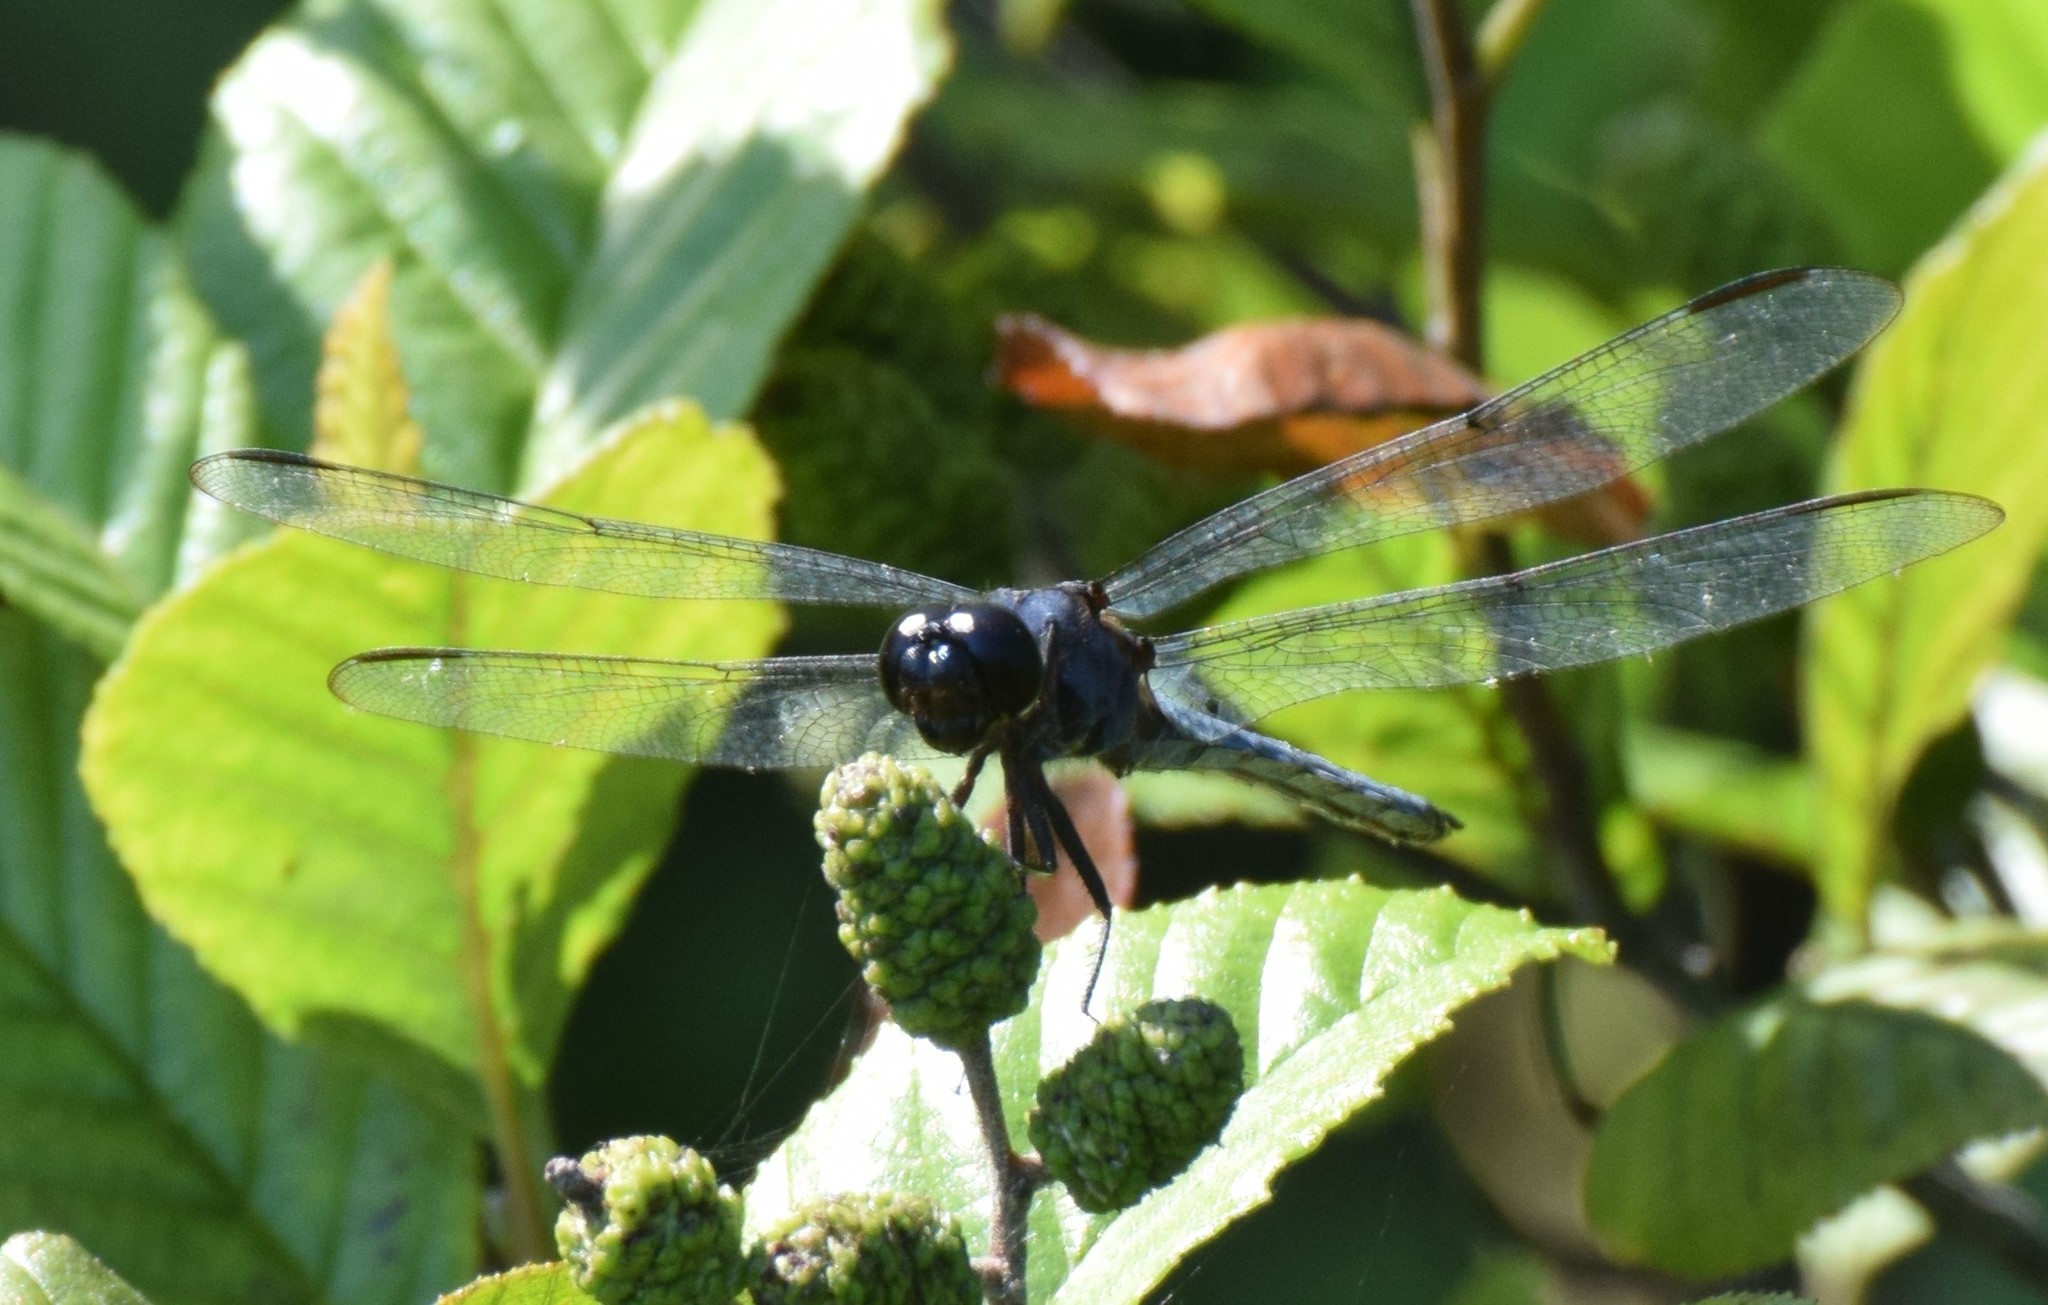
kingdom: Animalia
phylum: Arthropoda
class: Insecta
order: Odonata
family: Libellulidae
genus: Libellula
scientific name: Libellula incesta
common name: Slaty skimmer
